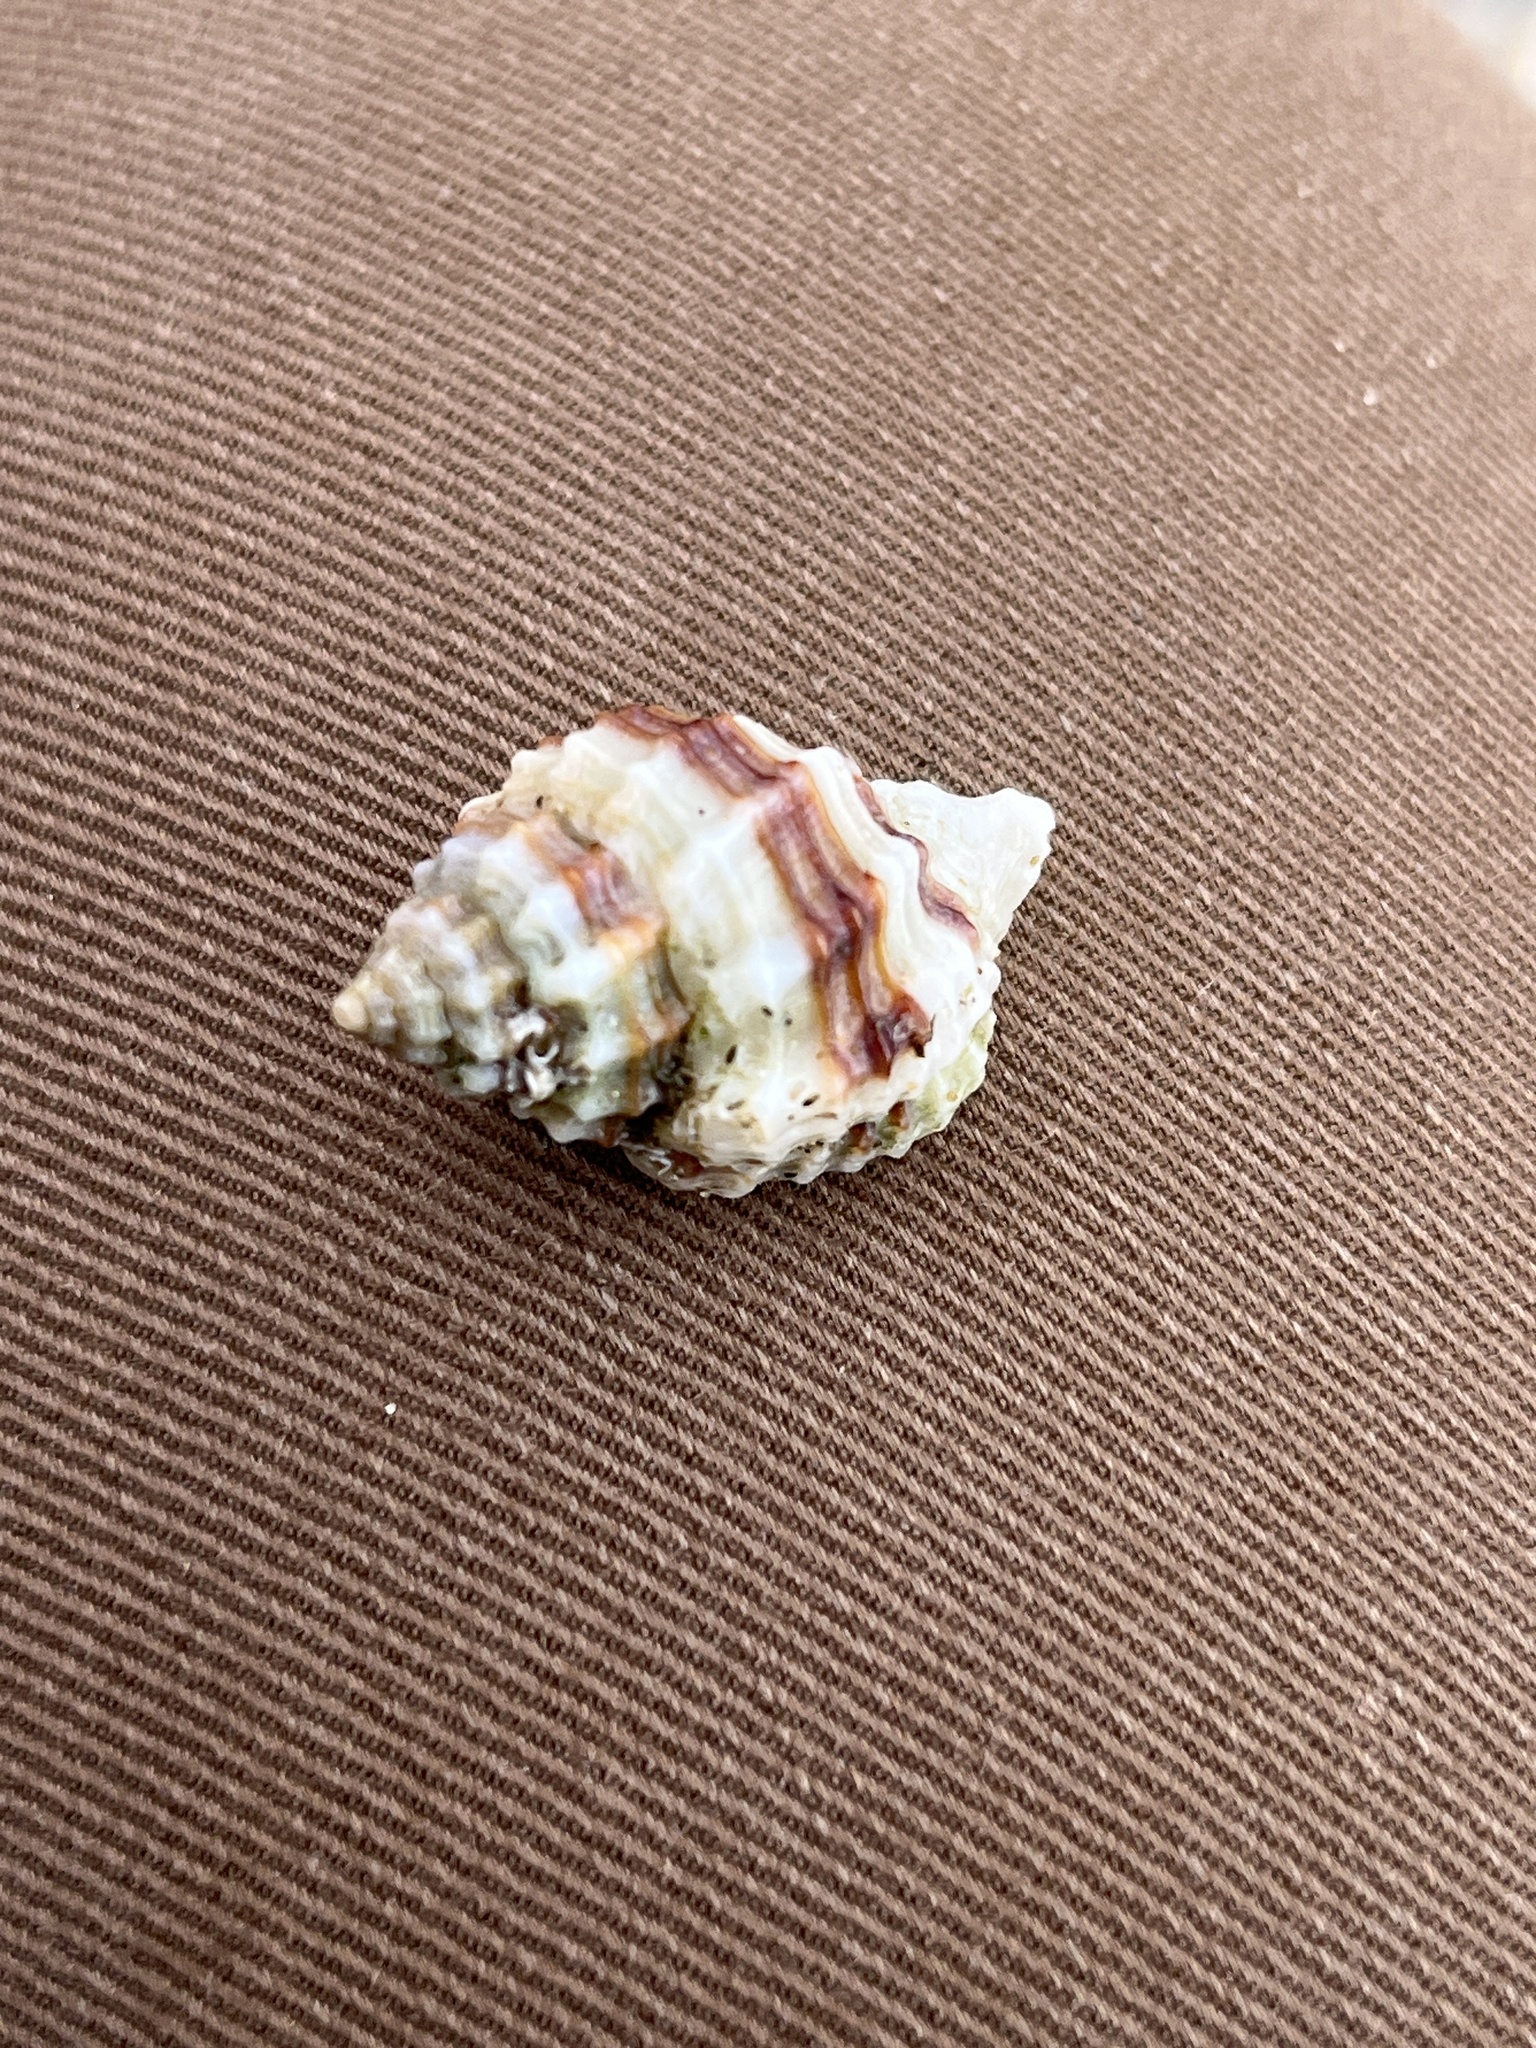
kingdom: Animalia
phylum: Mollusca
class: Gastropoda
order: Neogastropoda
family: Cancellariidae
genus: Bivetiella
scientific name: Bivetiella cancellata
